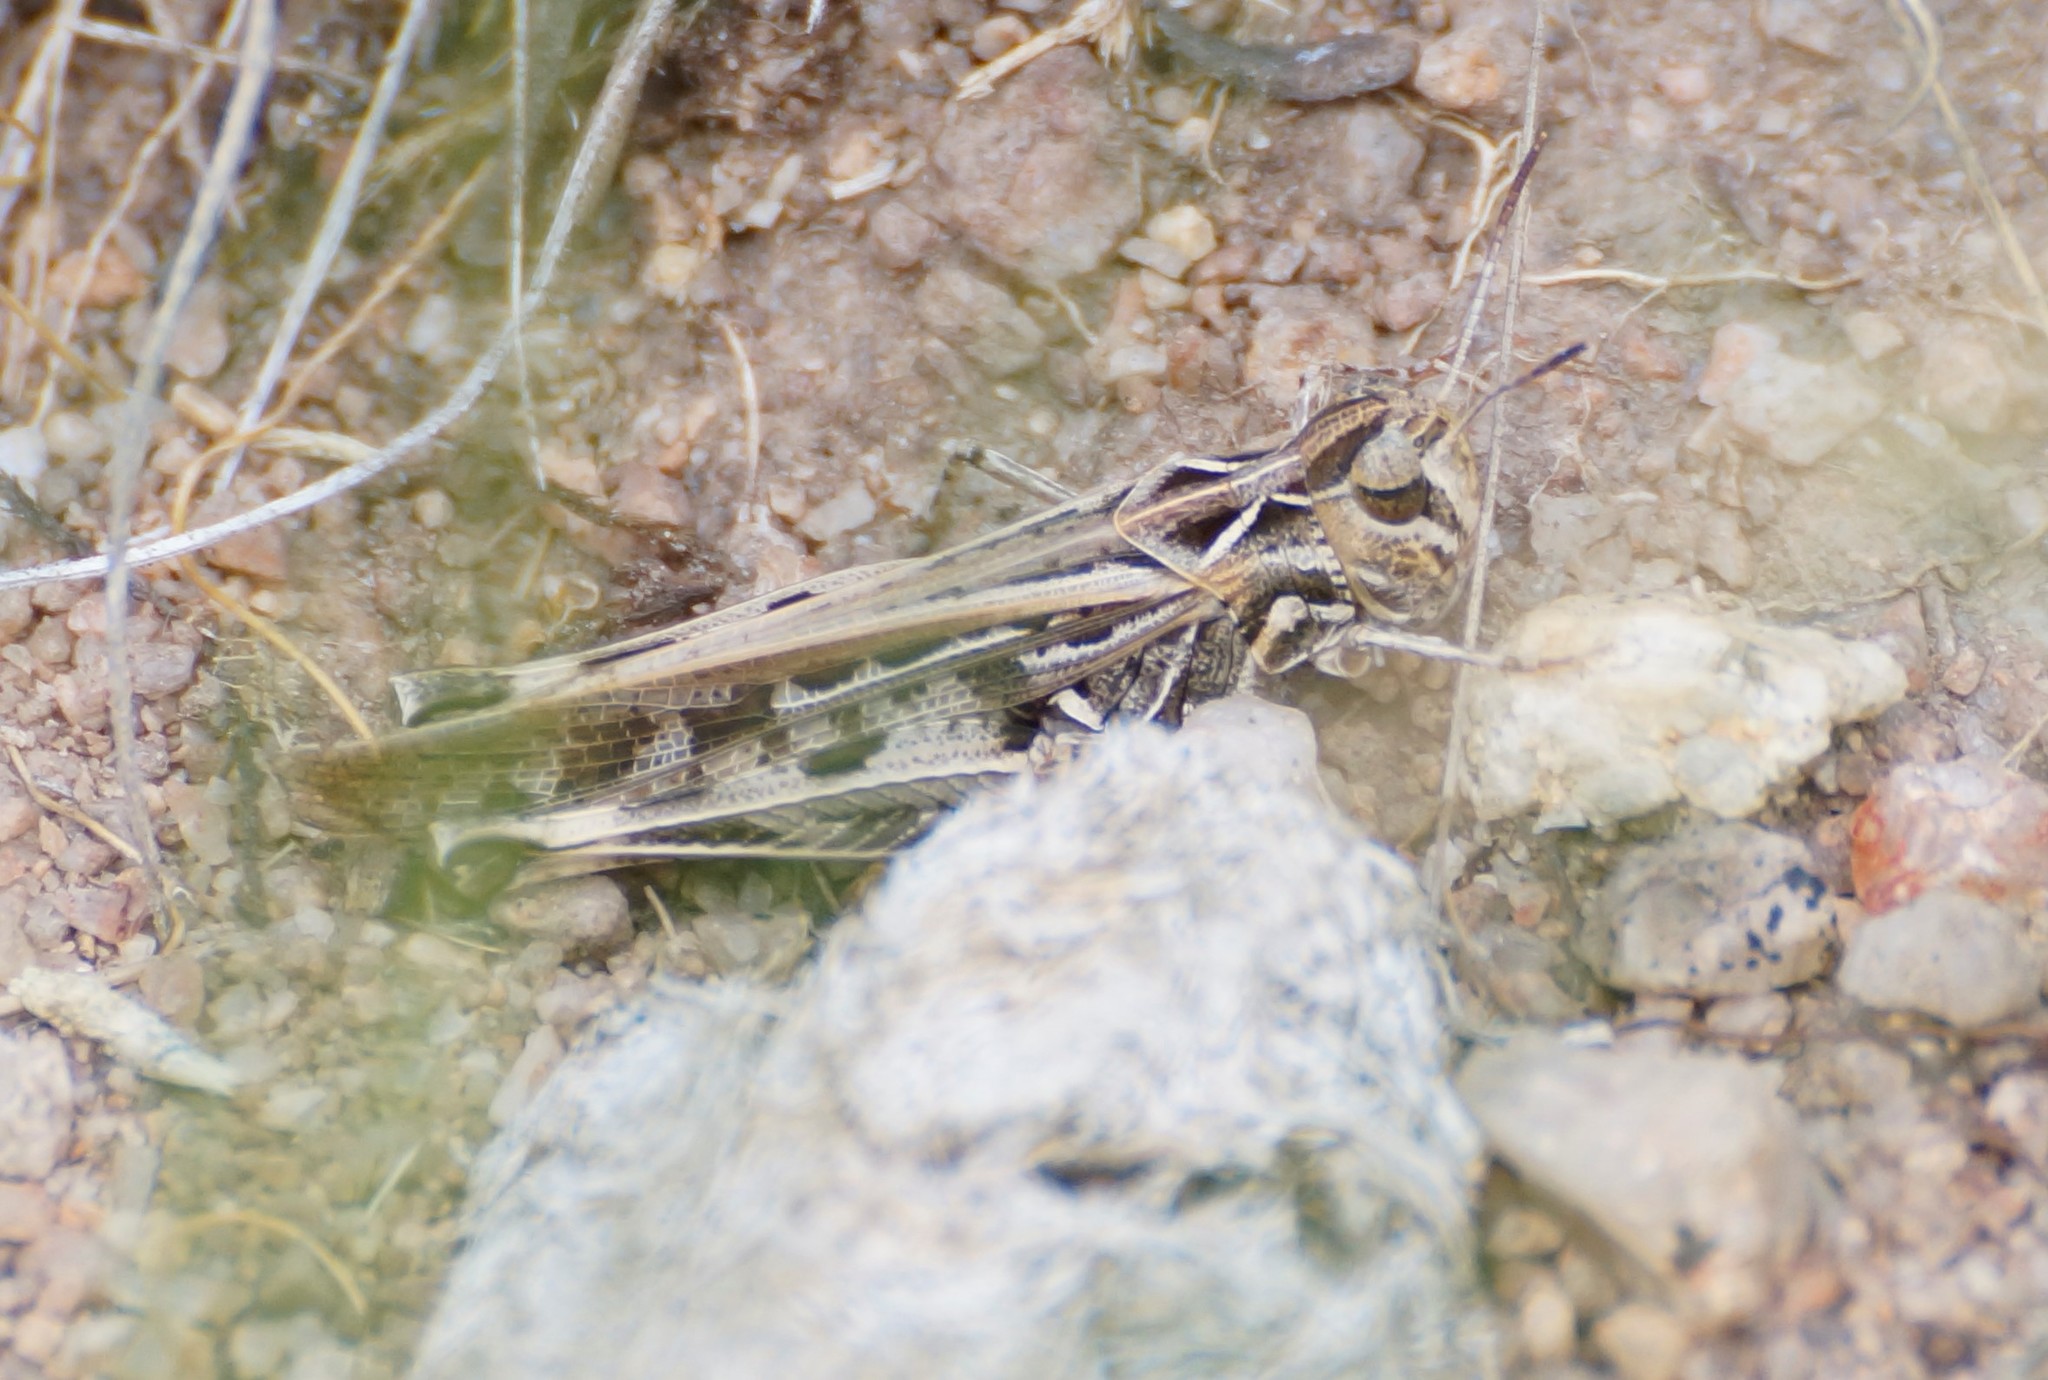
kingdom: Animalia
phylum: Arthropoda
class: Insecta
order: Orthoptera
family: Acrididae
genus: Austroicetes
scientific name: Austroicetes pusilla
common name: Confusing austroicetes
